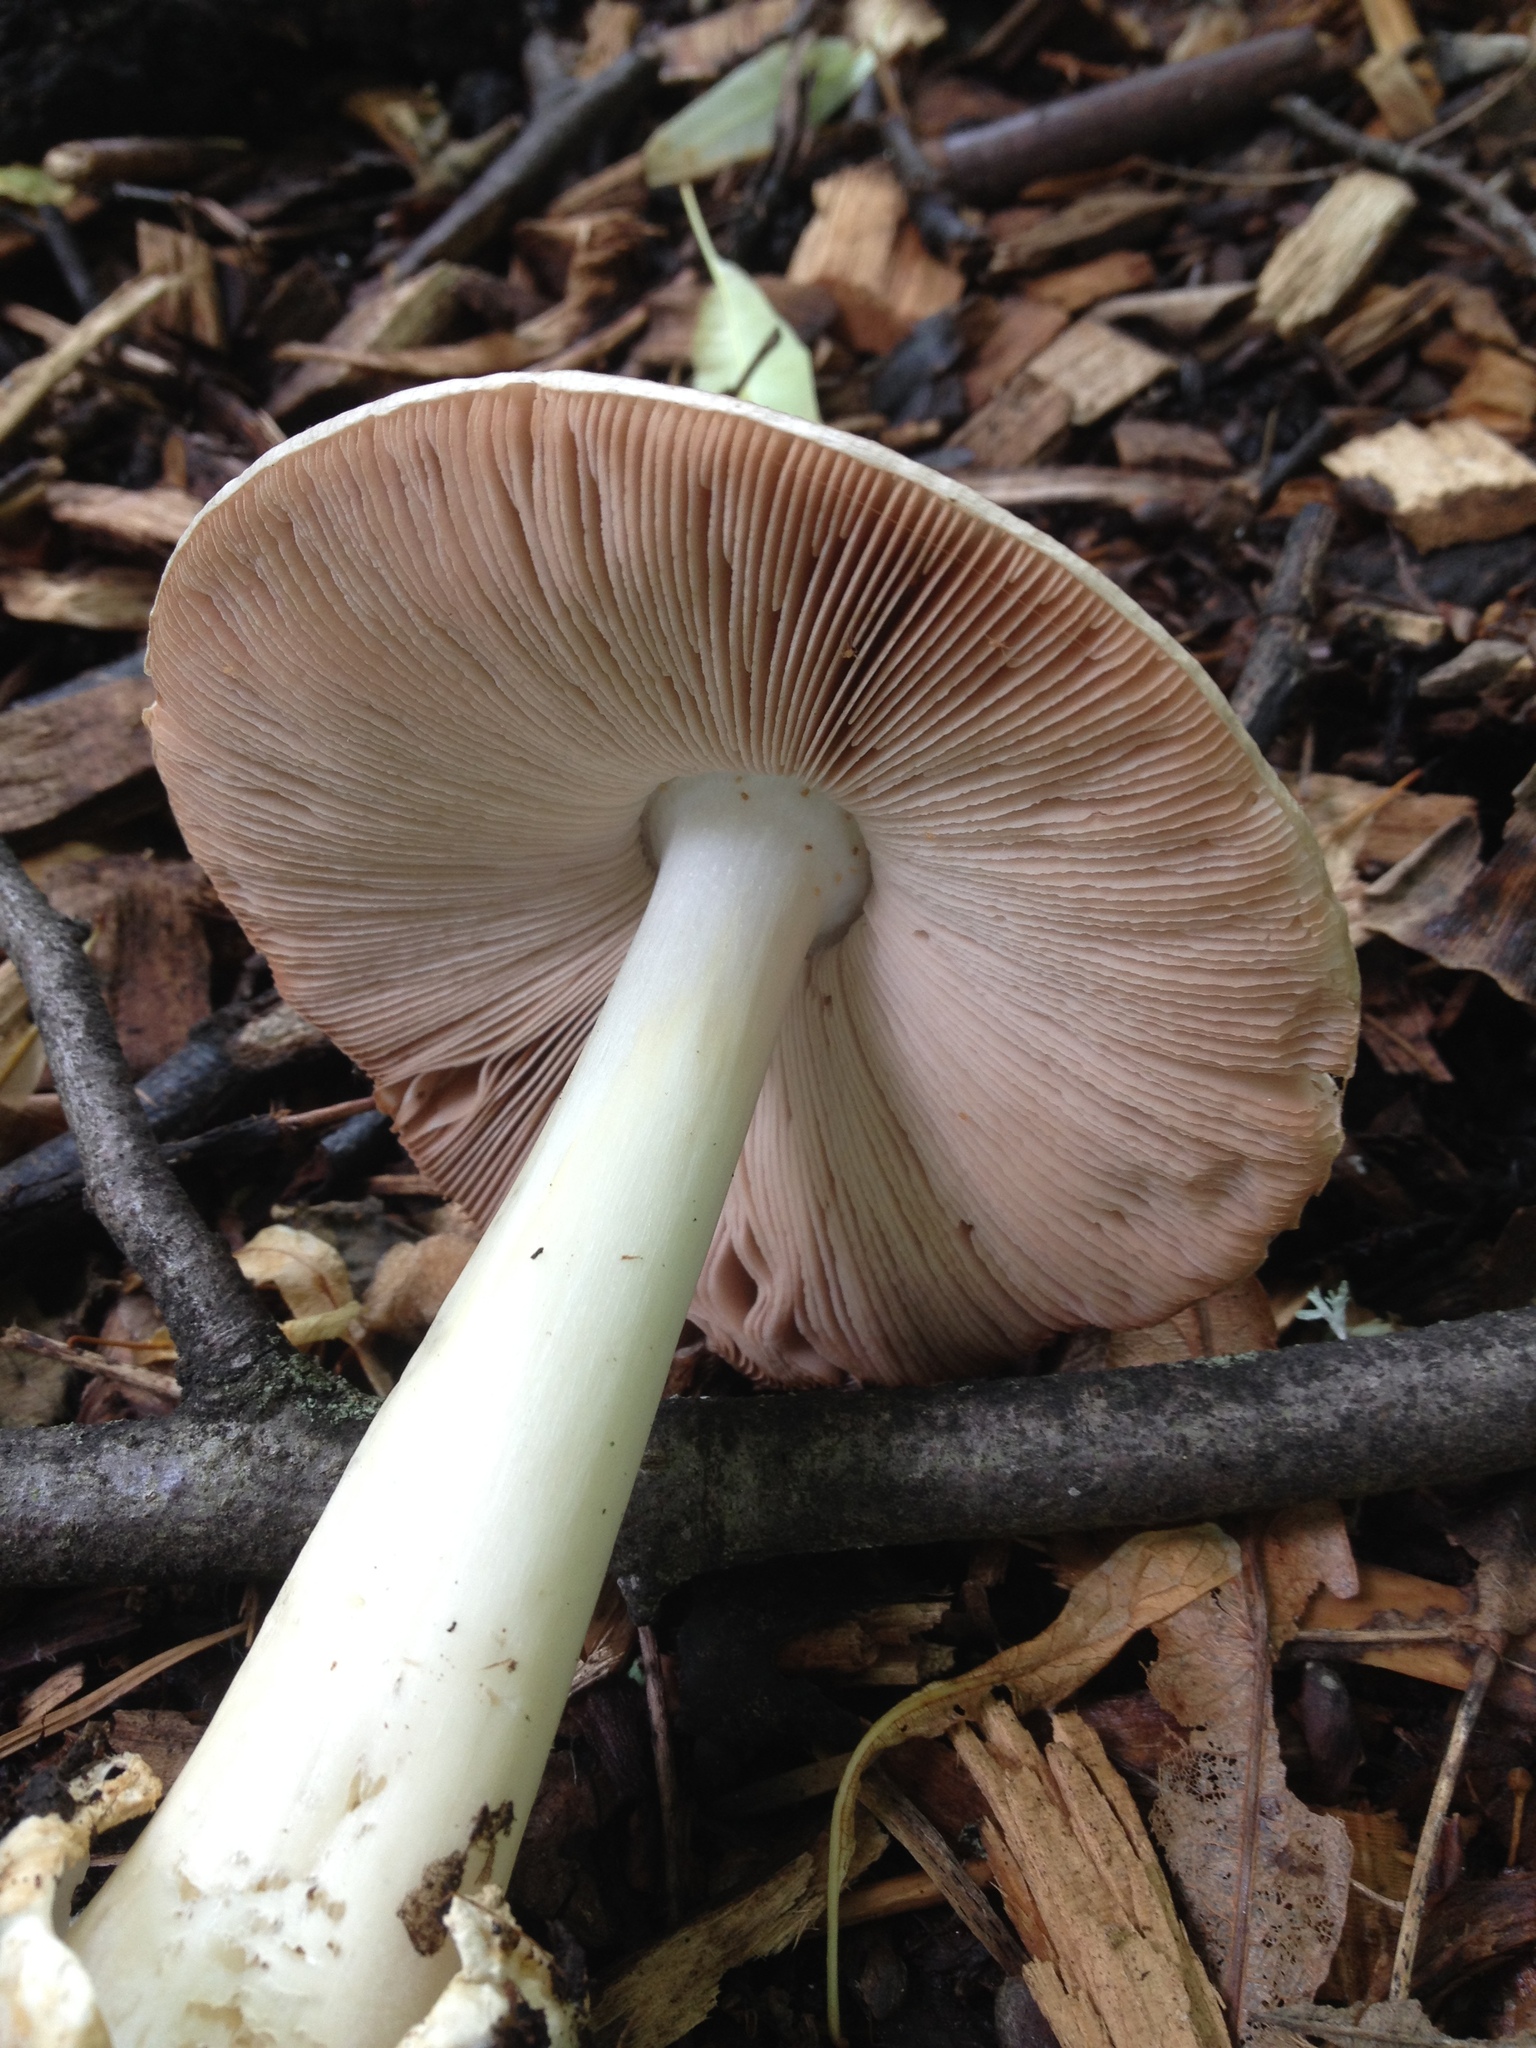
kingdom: Fungi
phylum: Basidiomycota
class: Agaricomycetes
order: Agaricales
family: Pluteaceae
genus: Volvopluteus
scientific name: Volvopluteus gloiocephalus
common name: Stubble rosegill
